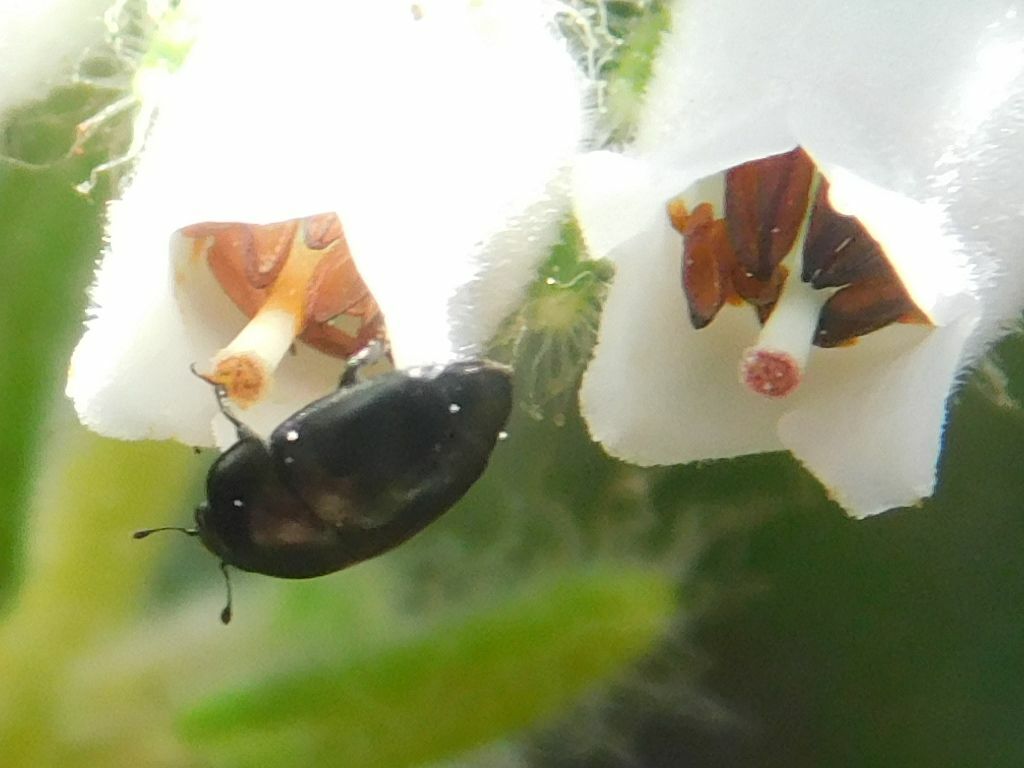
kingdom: Animalia
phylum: Arthropoda
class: Insecta
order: Coleoptera
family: Nitidulidae
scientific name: Nitidulidae
